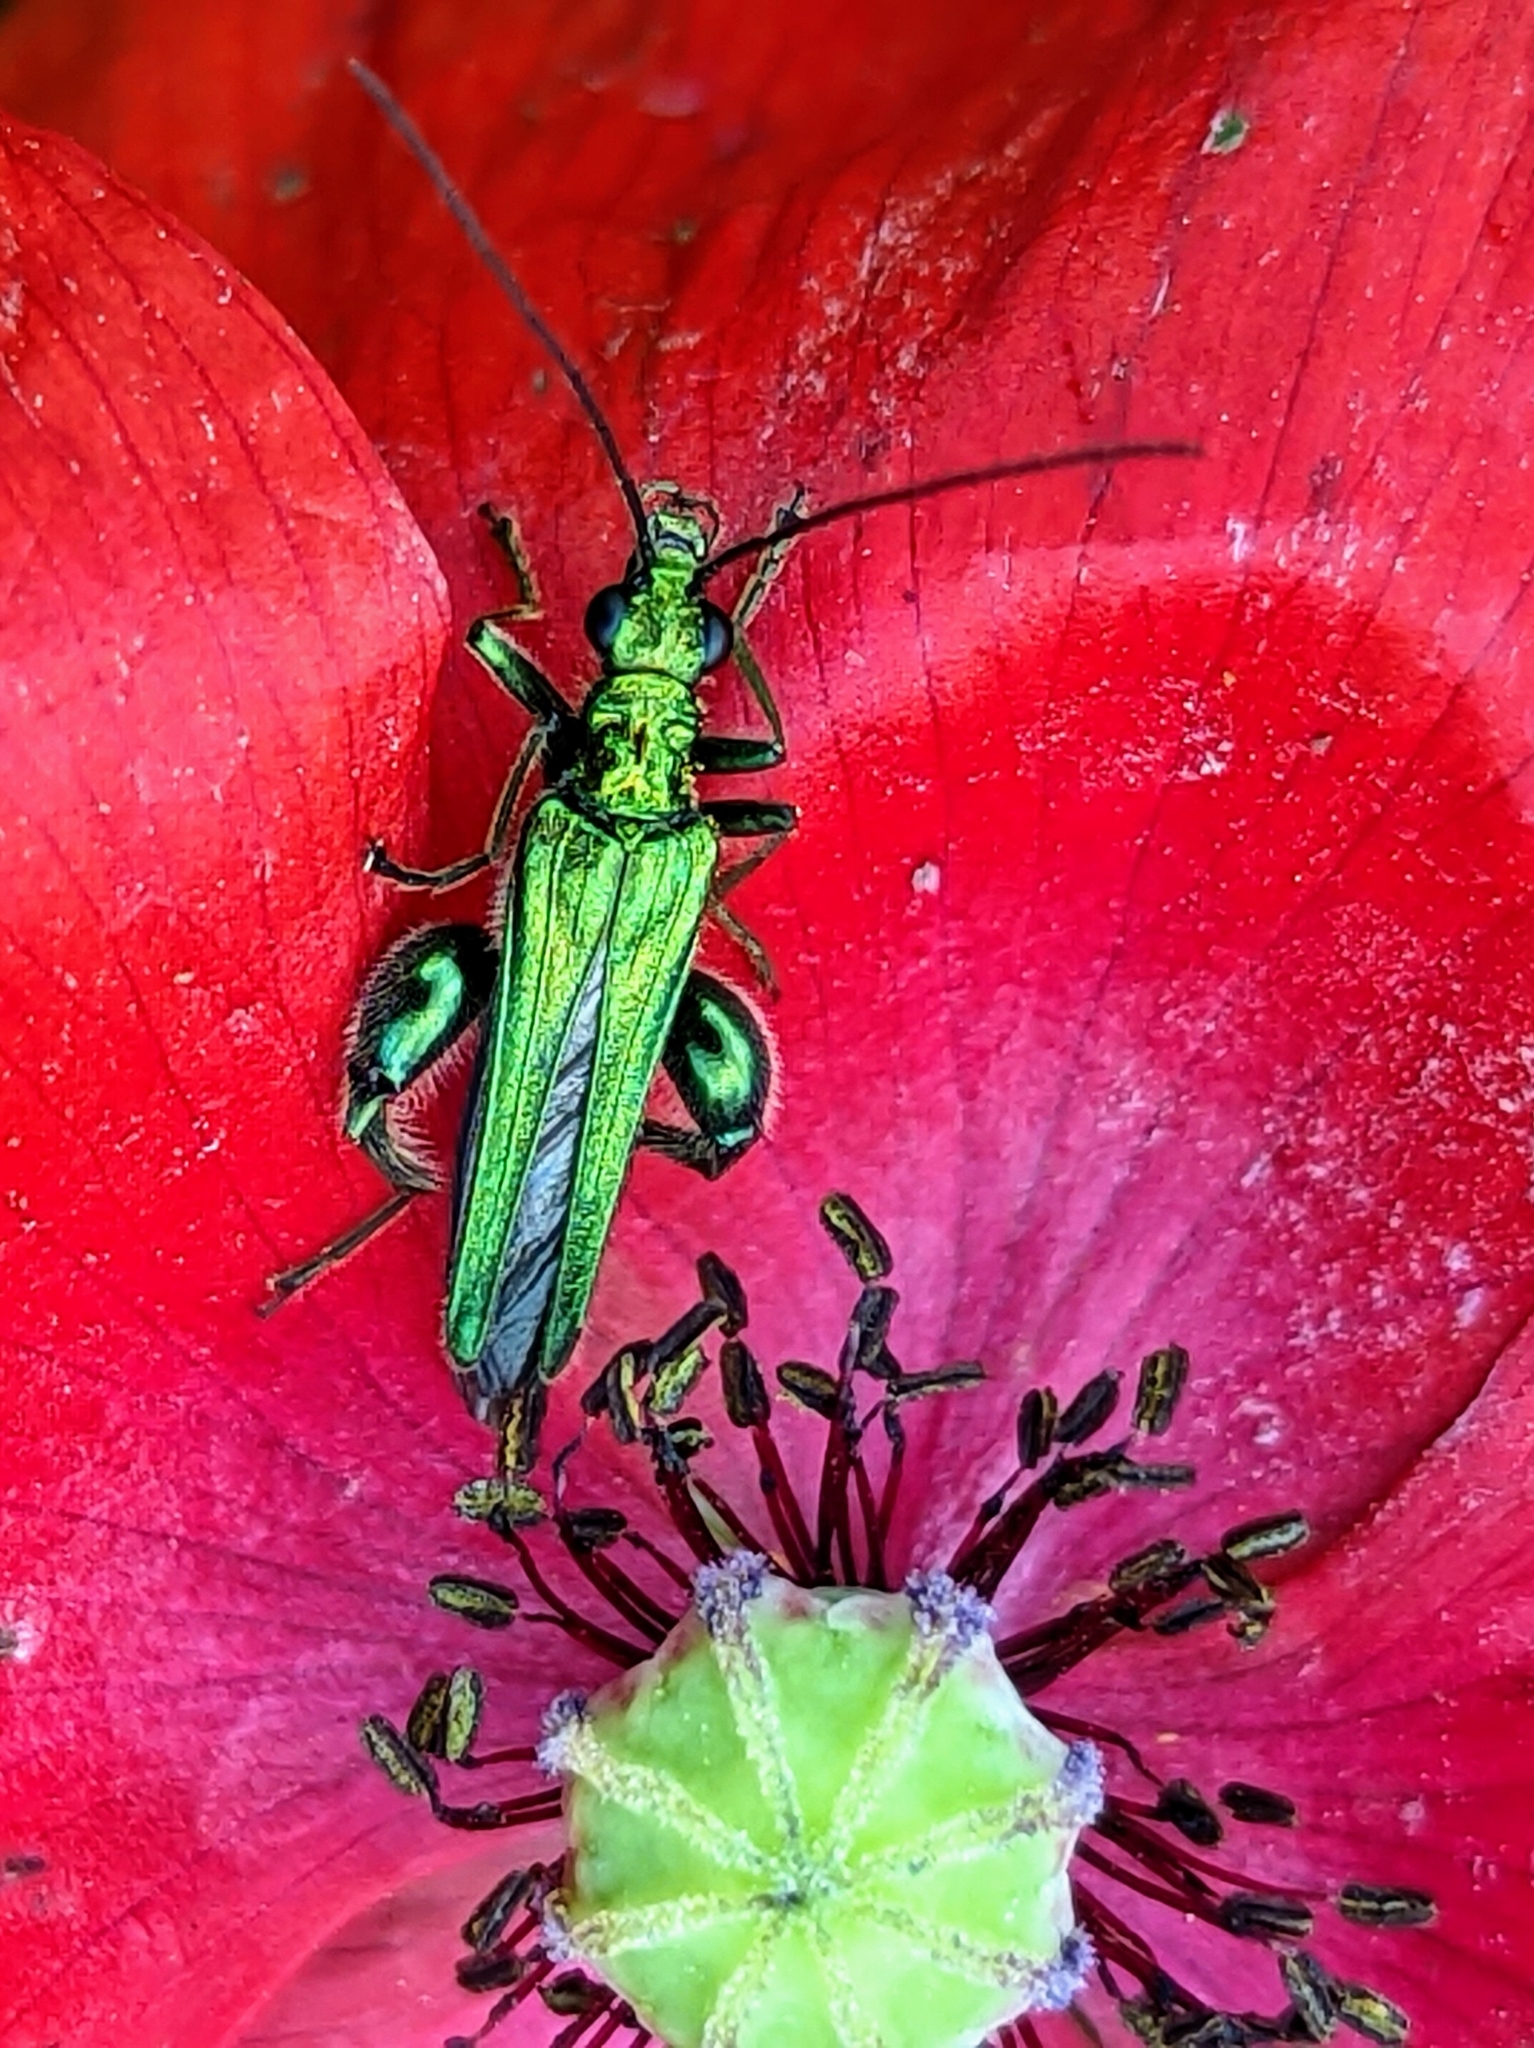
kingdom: Animalia
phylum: Arthropoda
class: Insecta
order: Coleoptera
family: Oedemeridae
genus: Oedemera
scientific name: Oedemera nobilis
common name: Swollen-thighed beetle
